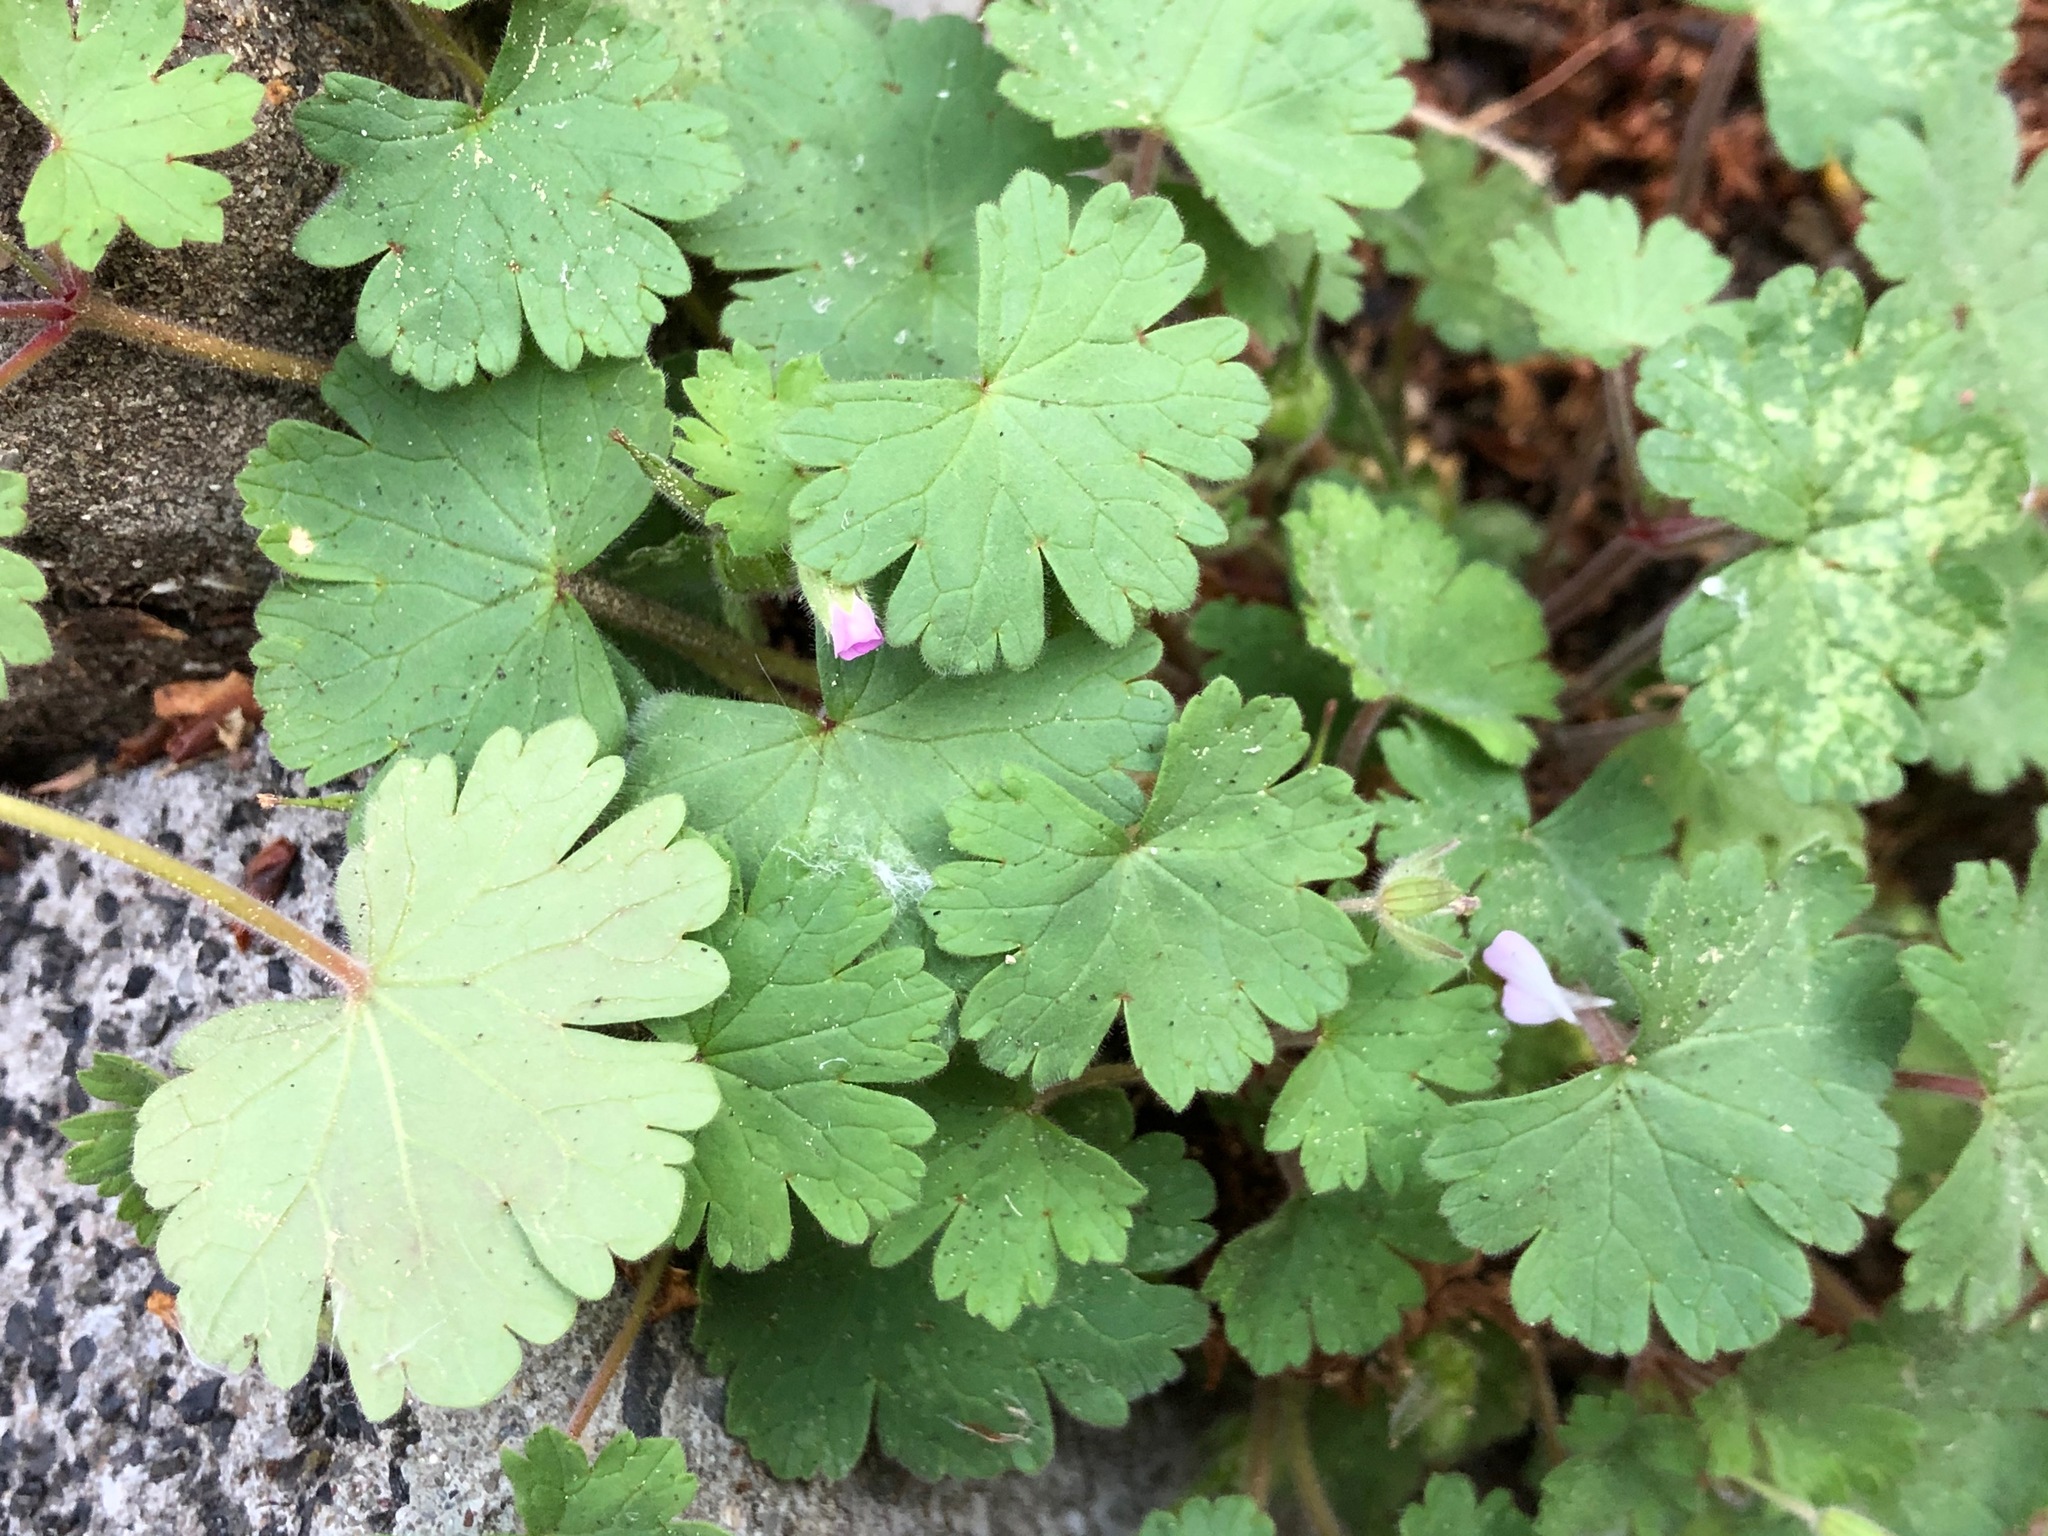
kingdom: Plantae
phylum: Tracheophyta
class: Magnoliopsida
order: Geraniales
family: Geraniaceae
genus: Geranium
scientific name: Geranium rotundifolium
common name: Round-leaved crane's-bill
